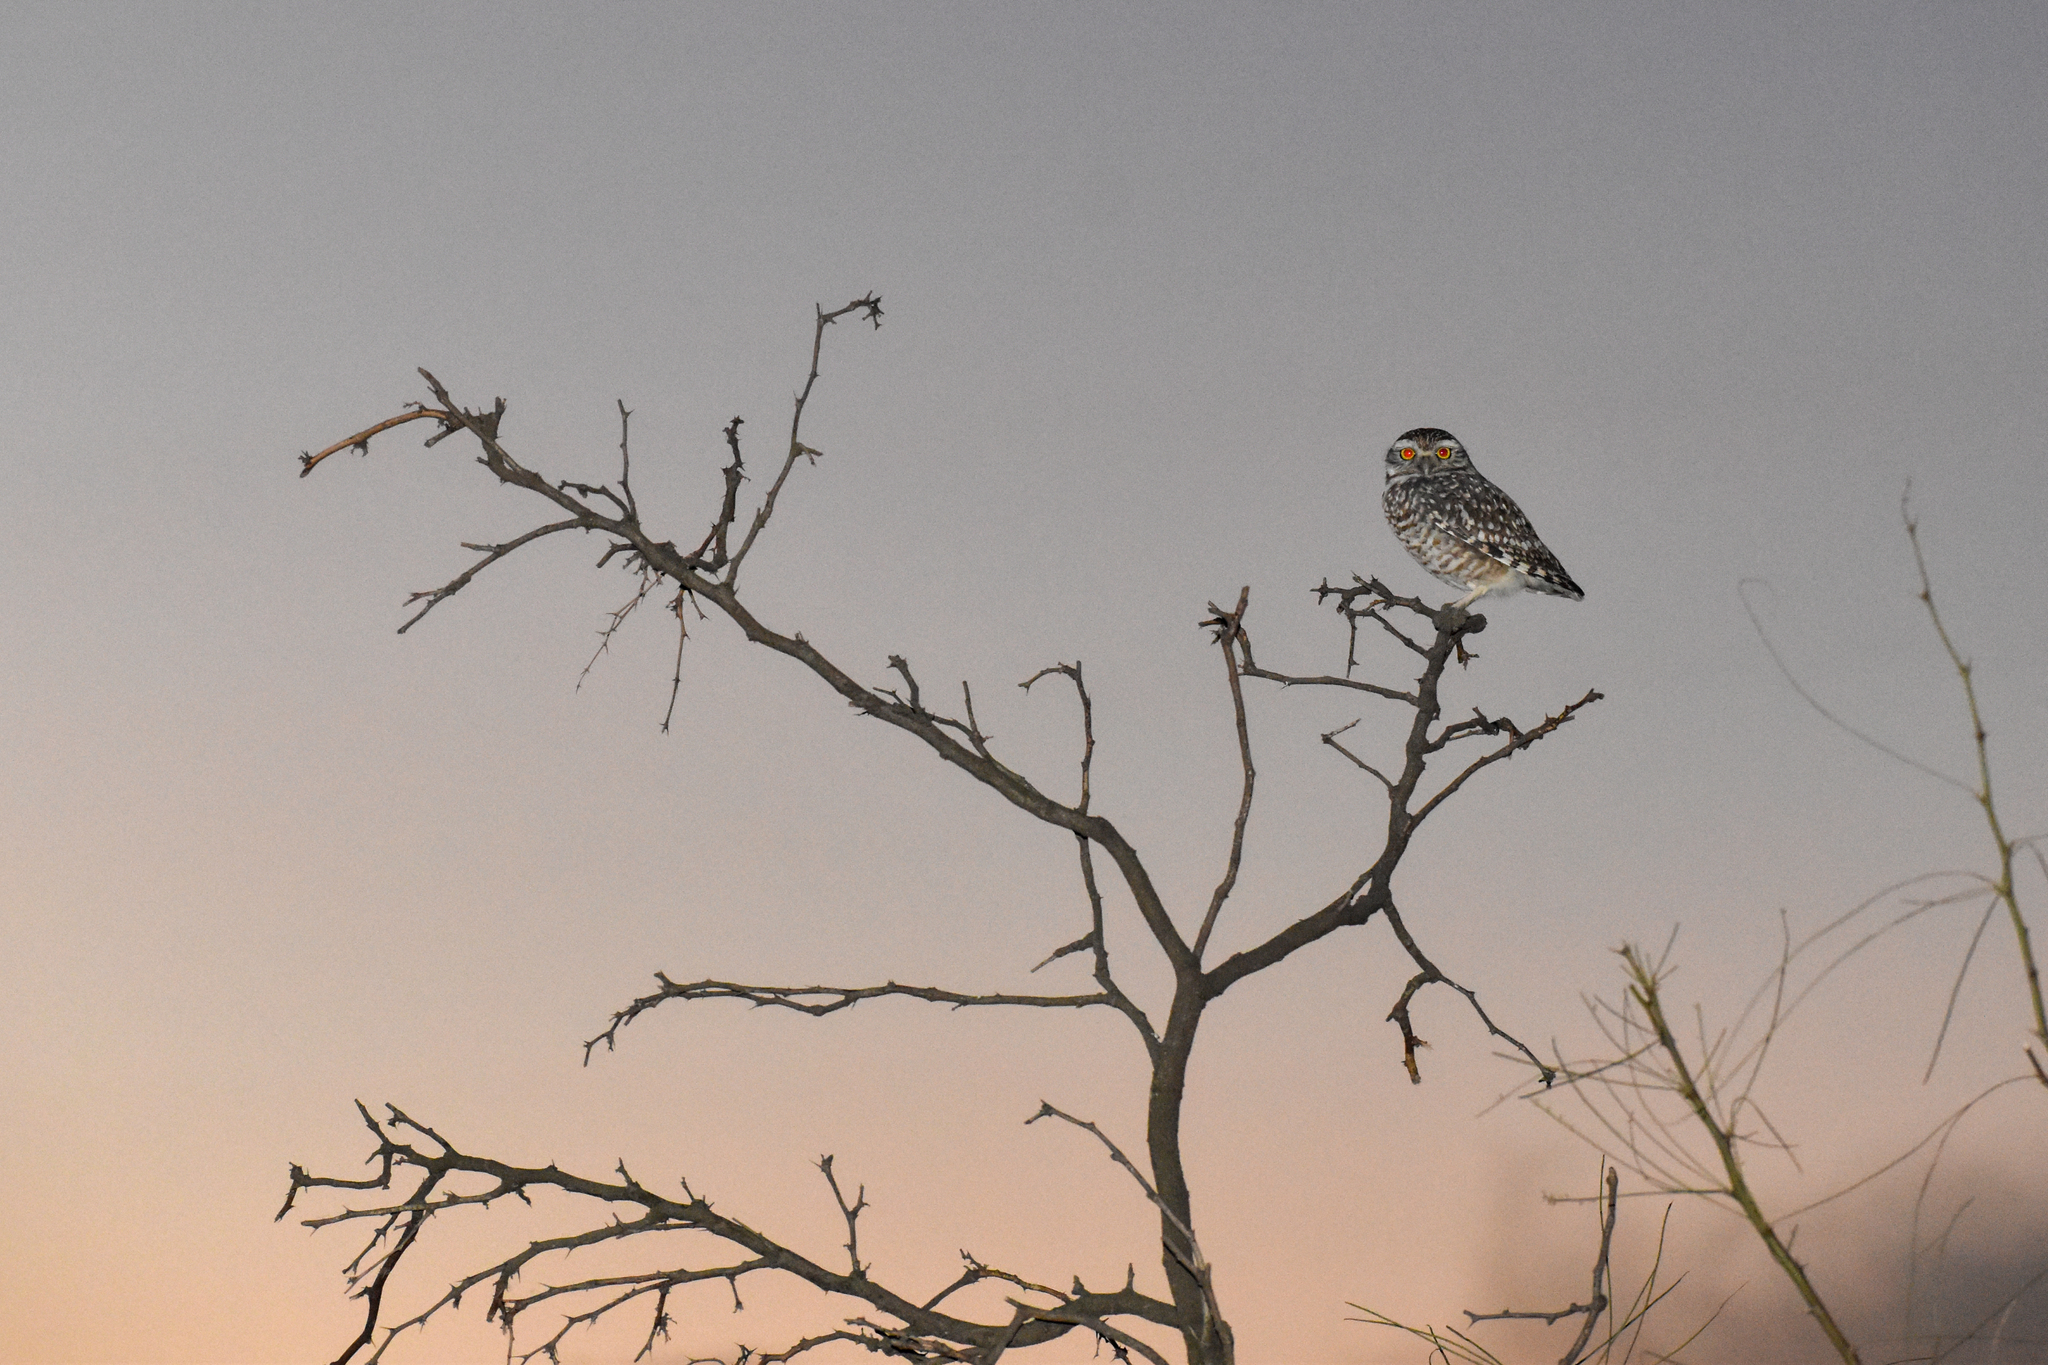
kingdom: Animalia
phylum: Chordata
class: Aves
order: Strigiformes
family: Strigidae
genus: Athene
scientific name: Athene cunicularia
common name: Burrowing owl
